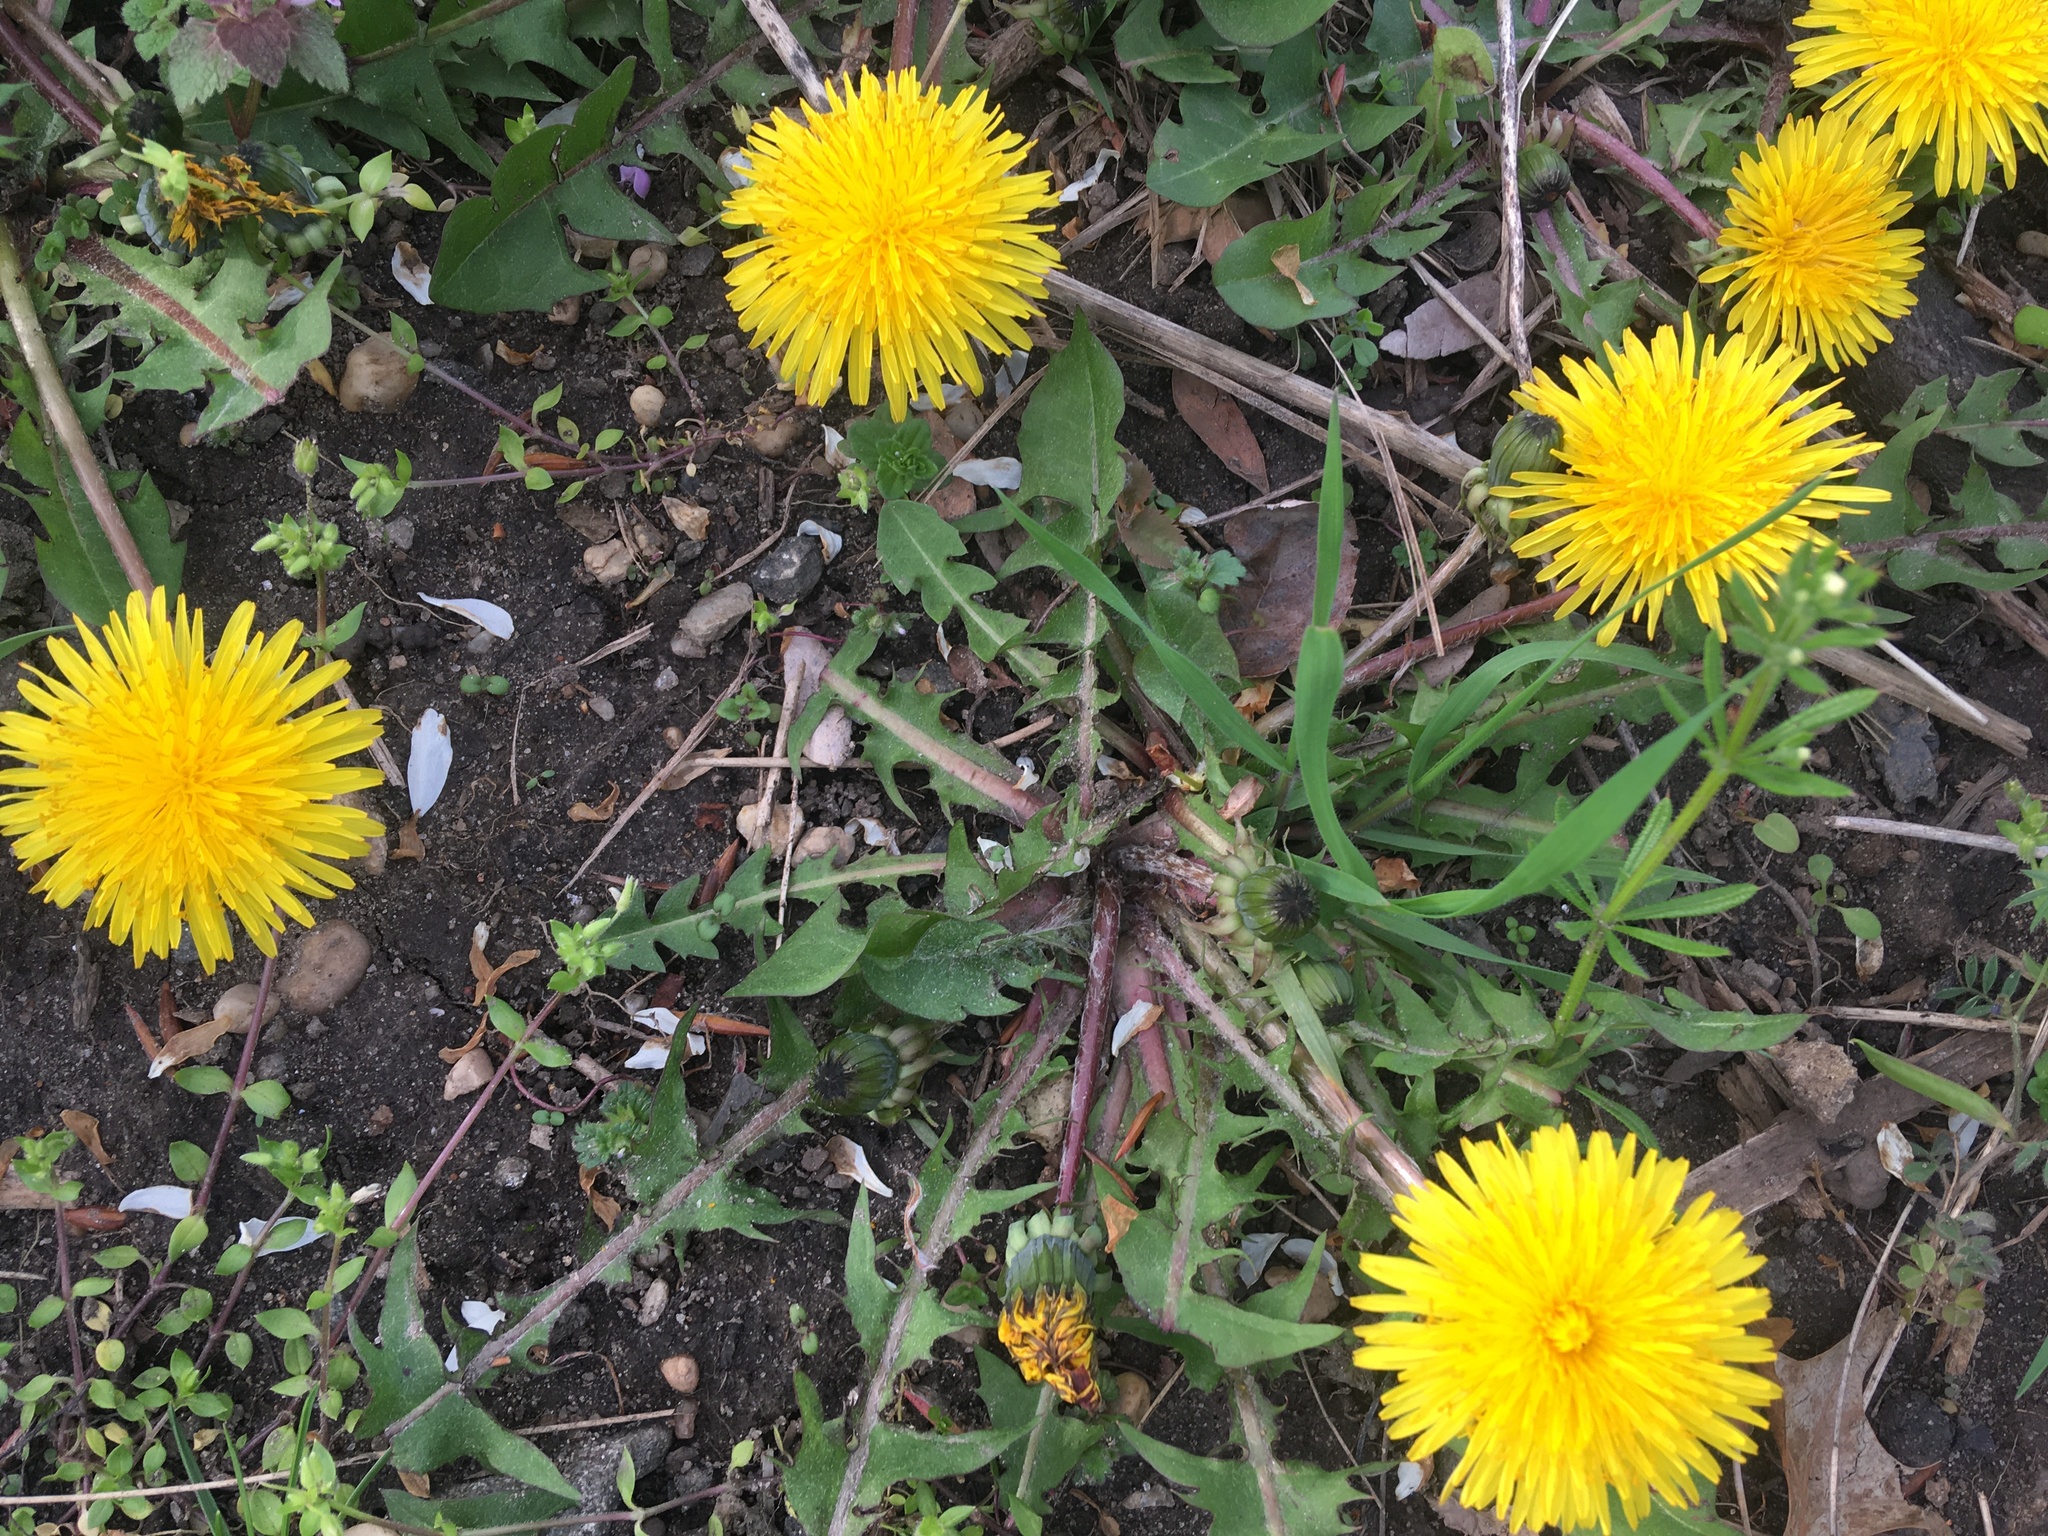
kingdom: Plantae
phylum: Tracheophyta
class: Magnoliopsida
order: Asterales
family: Asteraceae
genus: Taraxacum
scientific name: Taraxacum officinale
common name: Common dandelion
